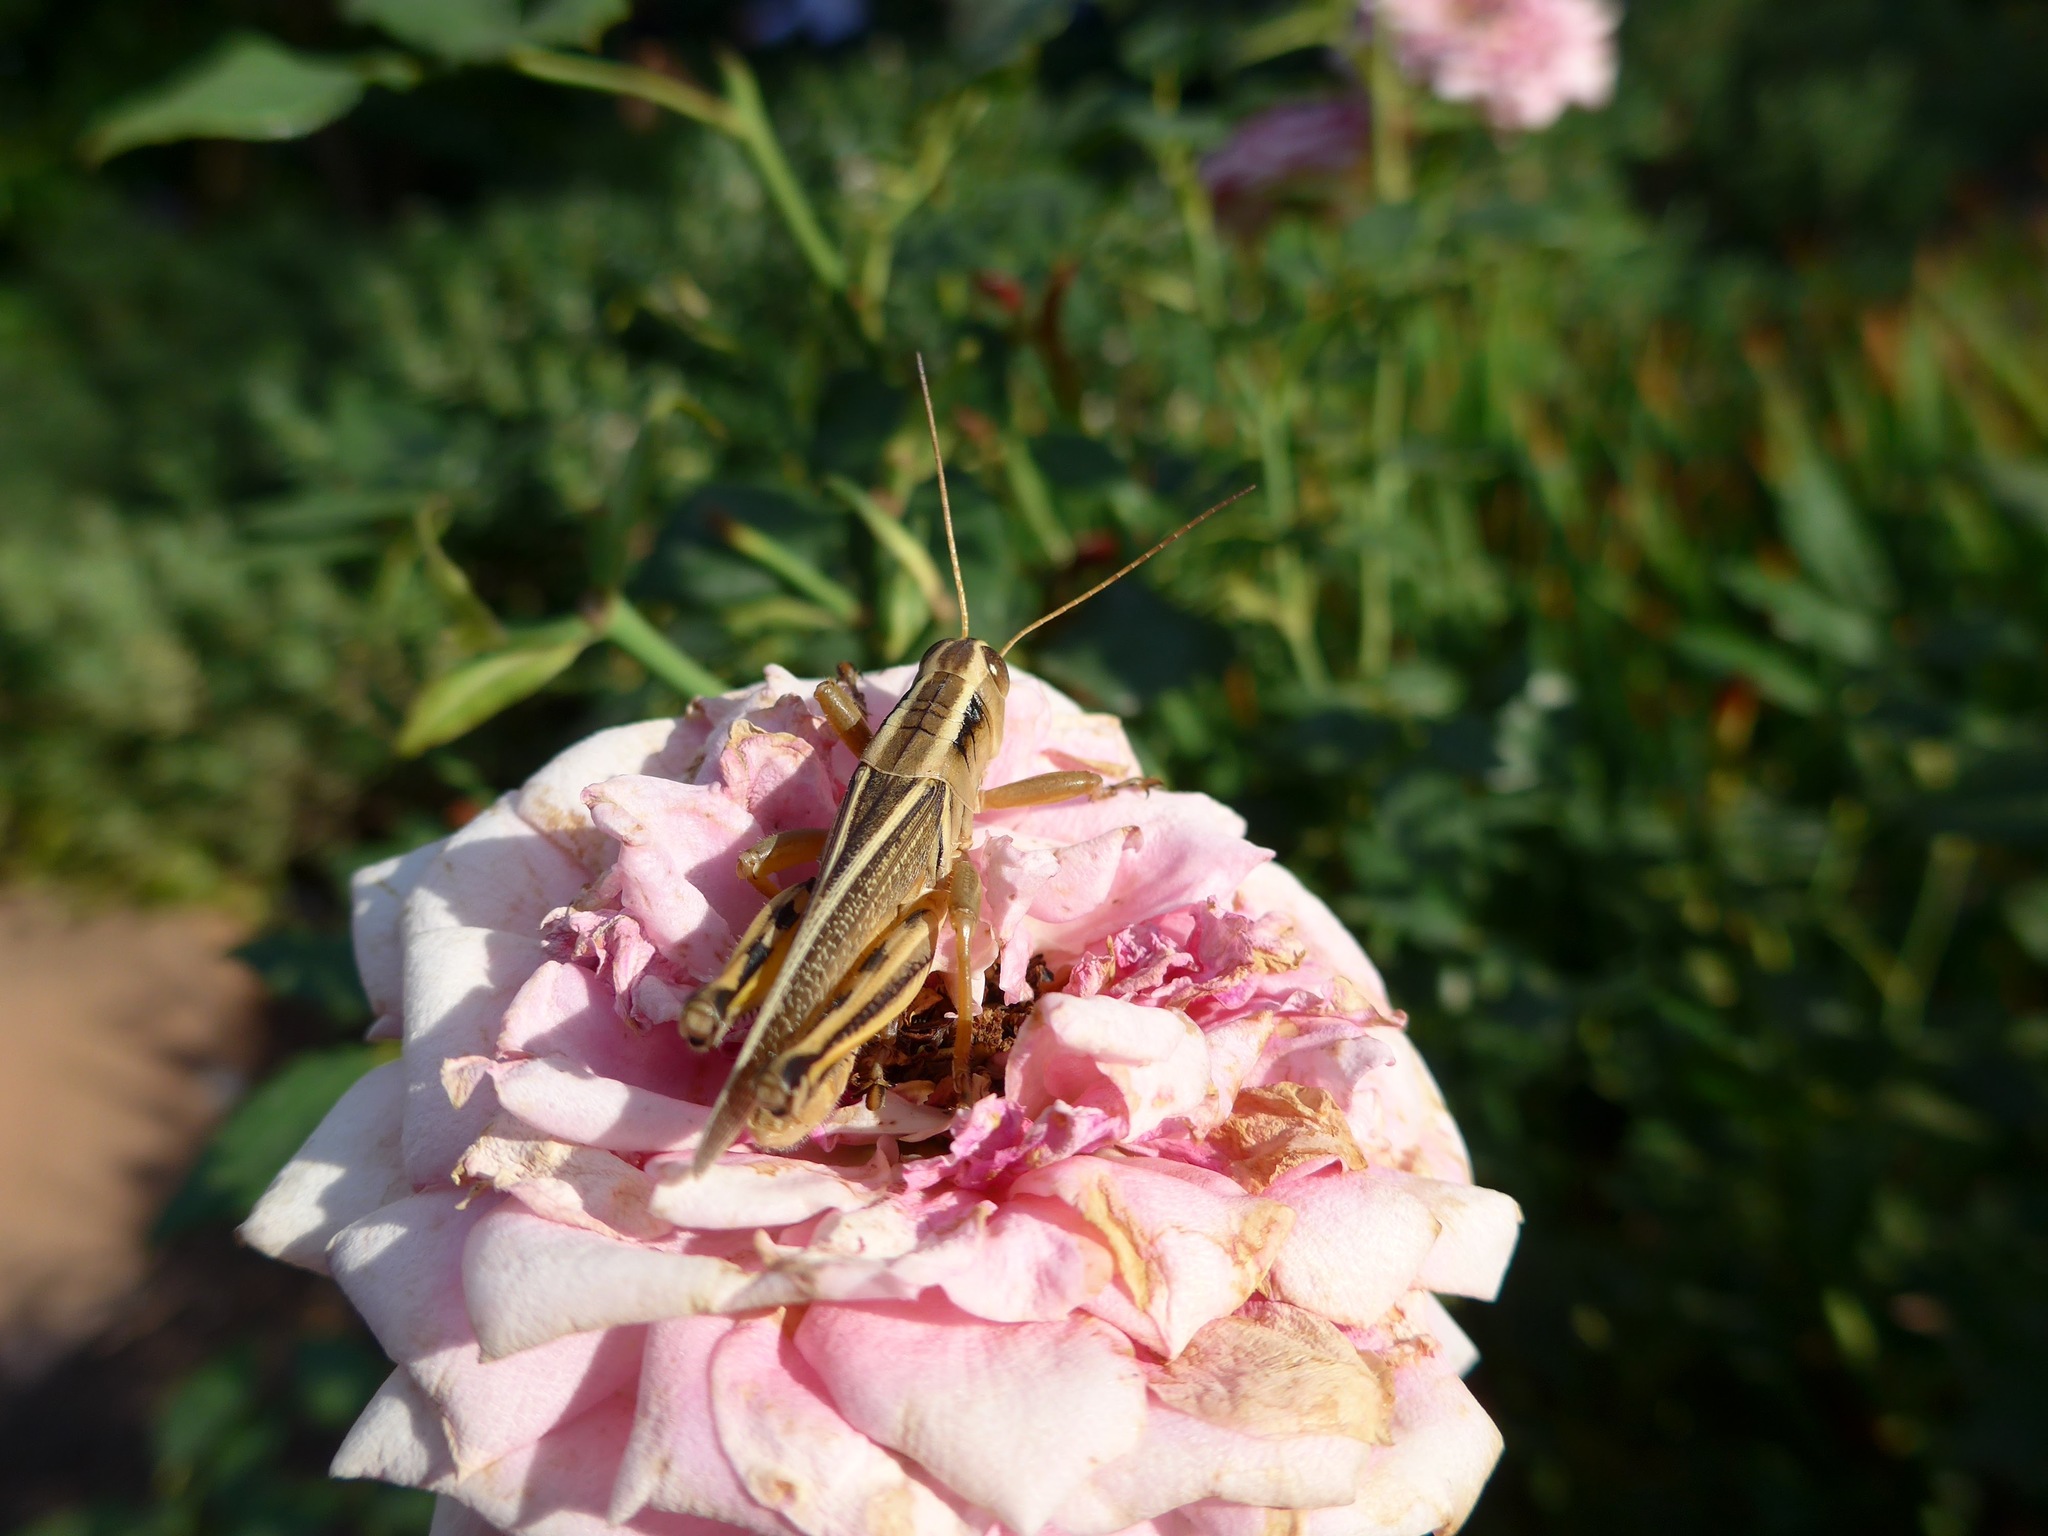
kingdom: Animalia
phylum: Arthropoda
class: Insecta
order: Orthoptera
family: Acrididae
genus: Melanoplus
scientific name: Melanoplus bivittatus
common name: Two-striped grasshopper
